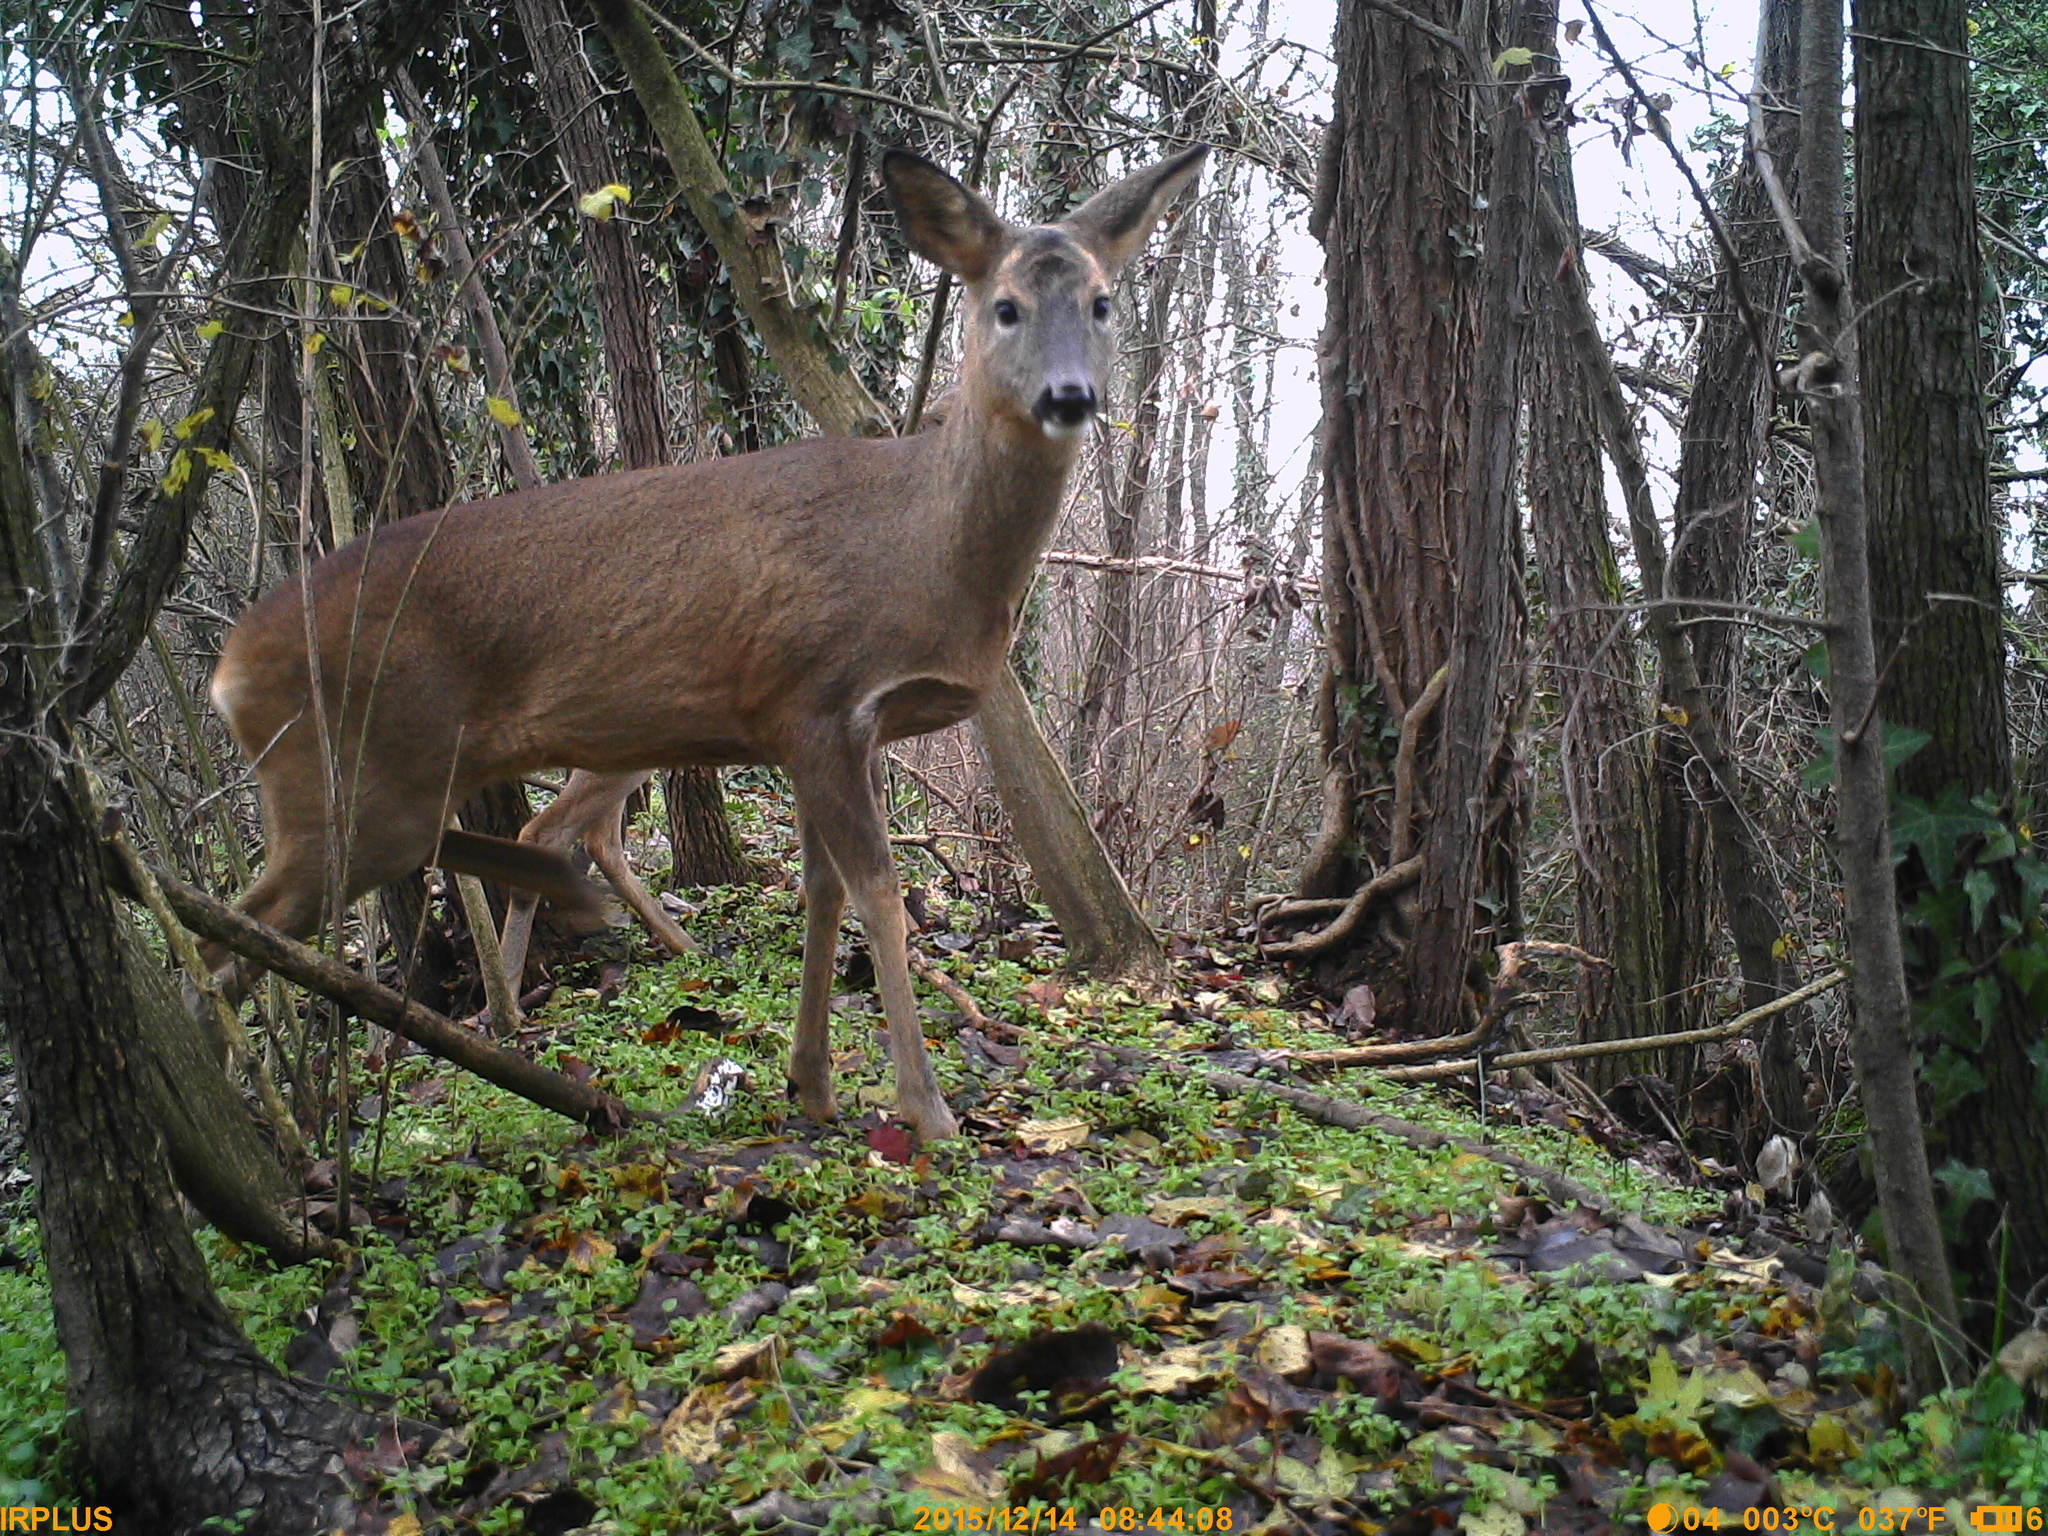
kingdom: Animalia
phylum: Chordata
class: Mammalia
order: Artiodactyla
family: Cervidae
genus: Capreolus
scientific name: Capreolus capreolus
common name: Western roe deer
